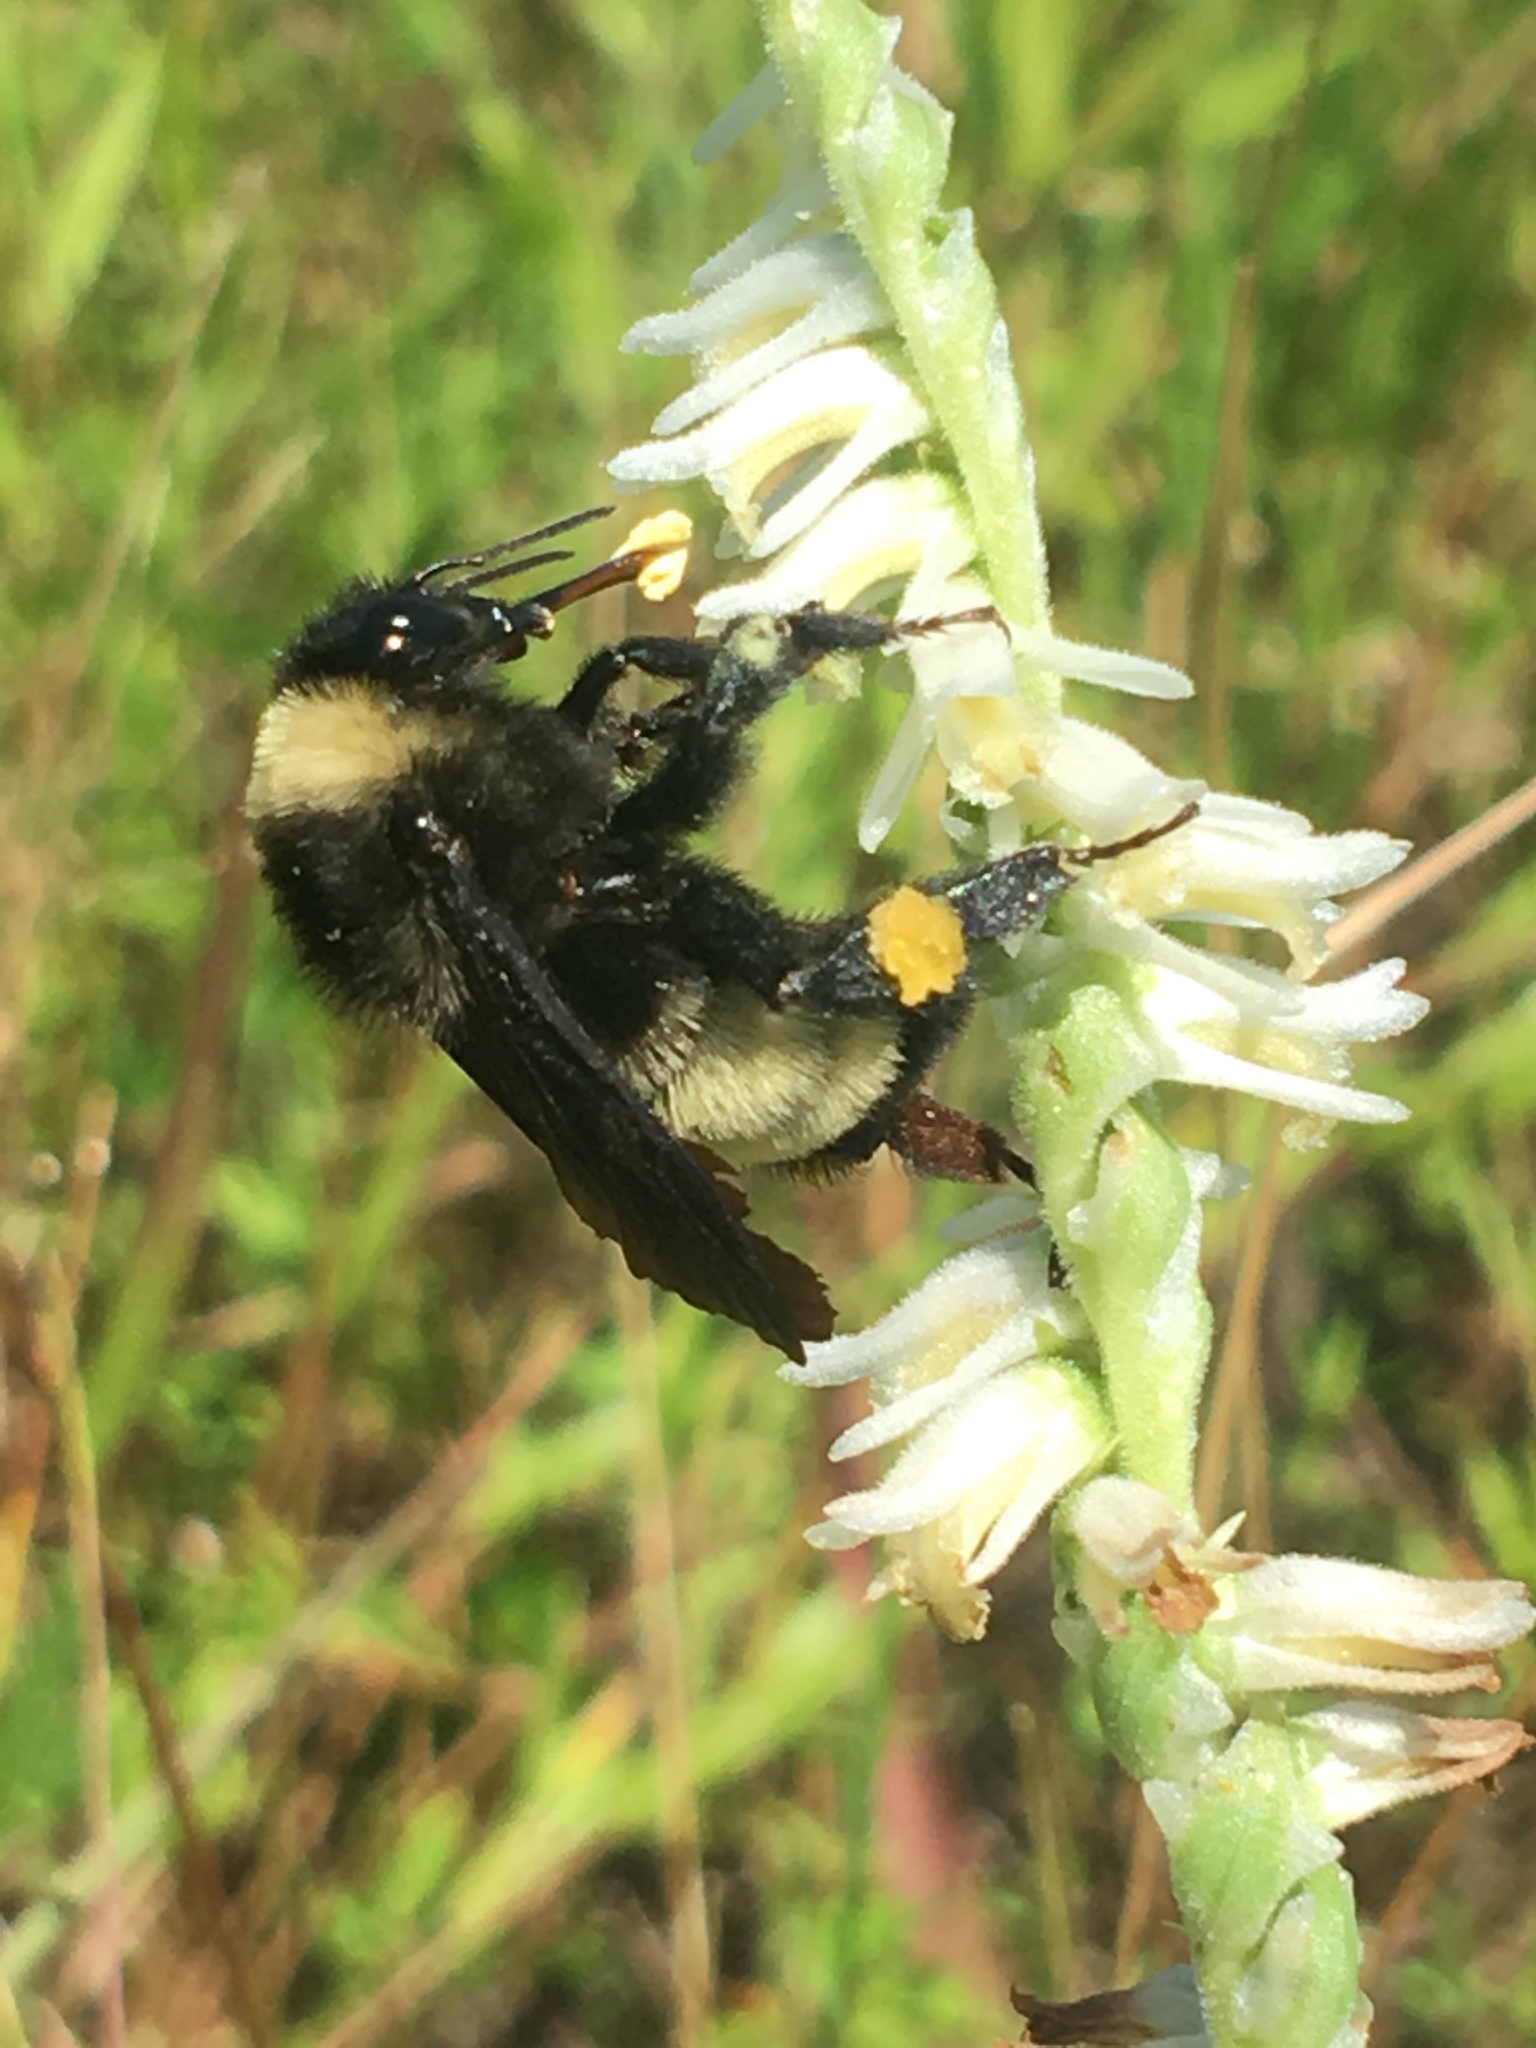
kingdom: Animalia
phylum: Arthropoda
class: Insecta
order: Hymenoptera
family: Apidae
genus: Bombus
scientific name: Bombus pensylvanicus
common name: Bumble bee
